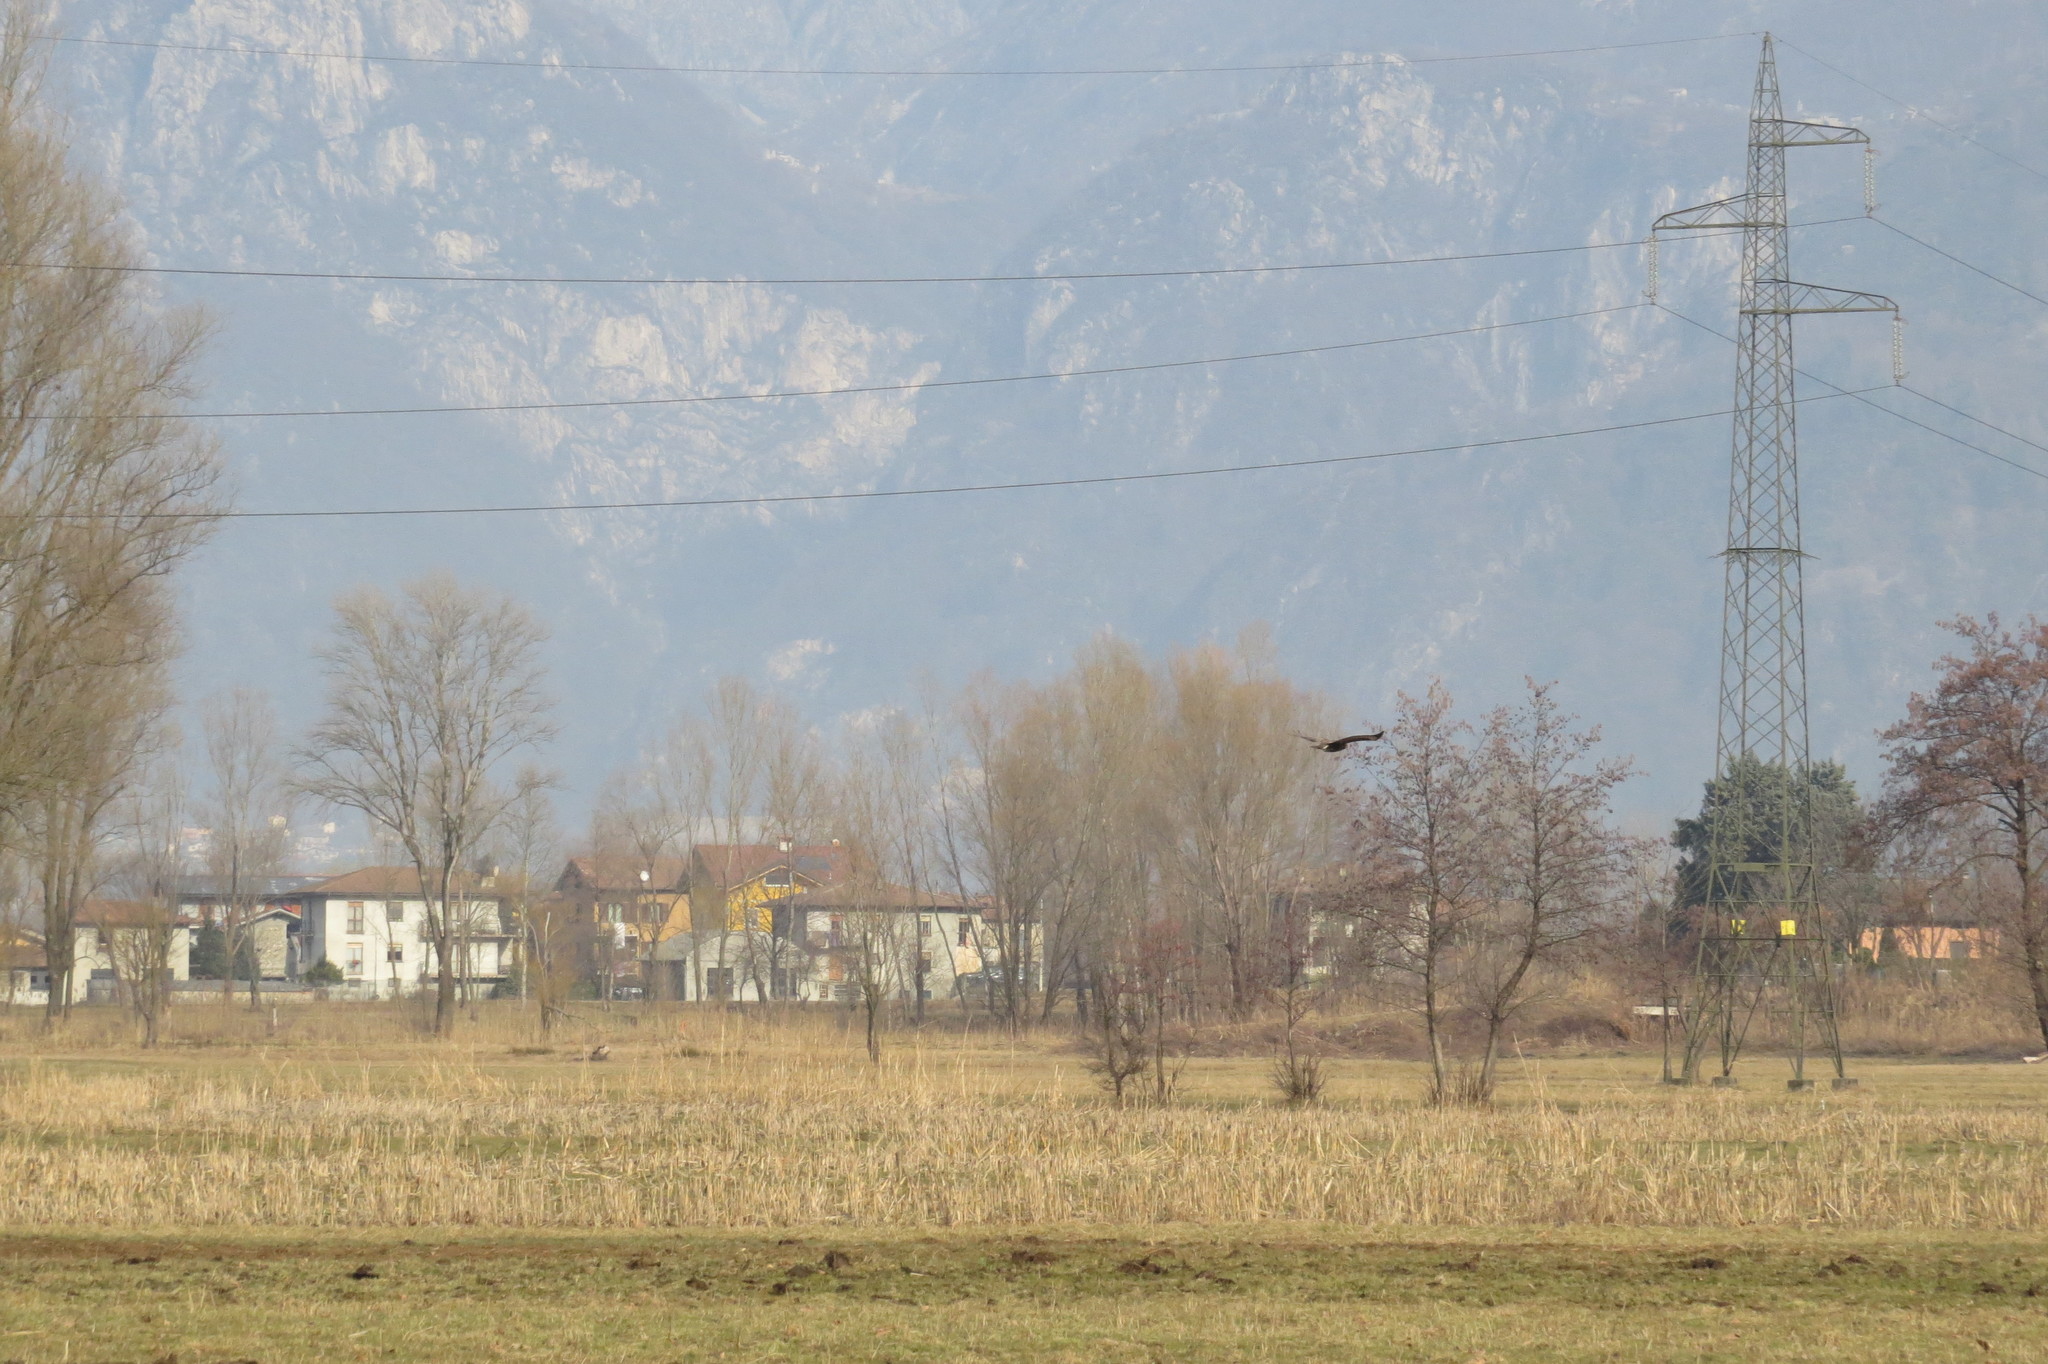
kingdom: Animalia
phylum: Chordata
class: Aves
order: Accipitriformes
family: Accipitridae
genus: Buteo
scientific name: Buteo buteo
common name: Common buzzard
